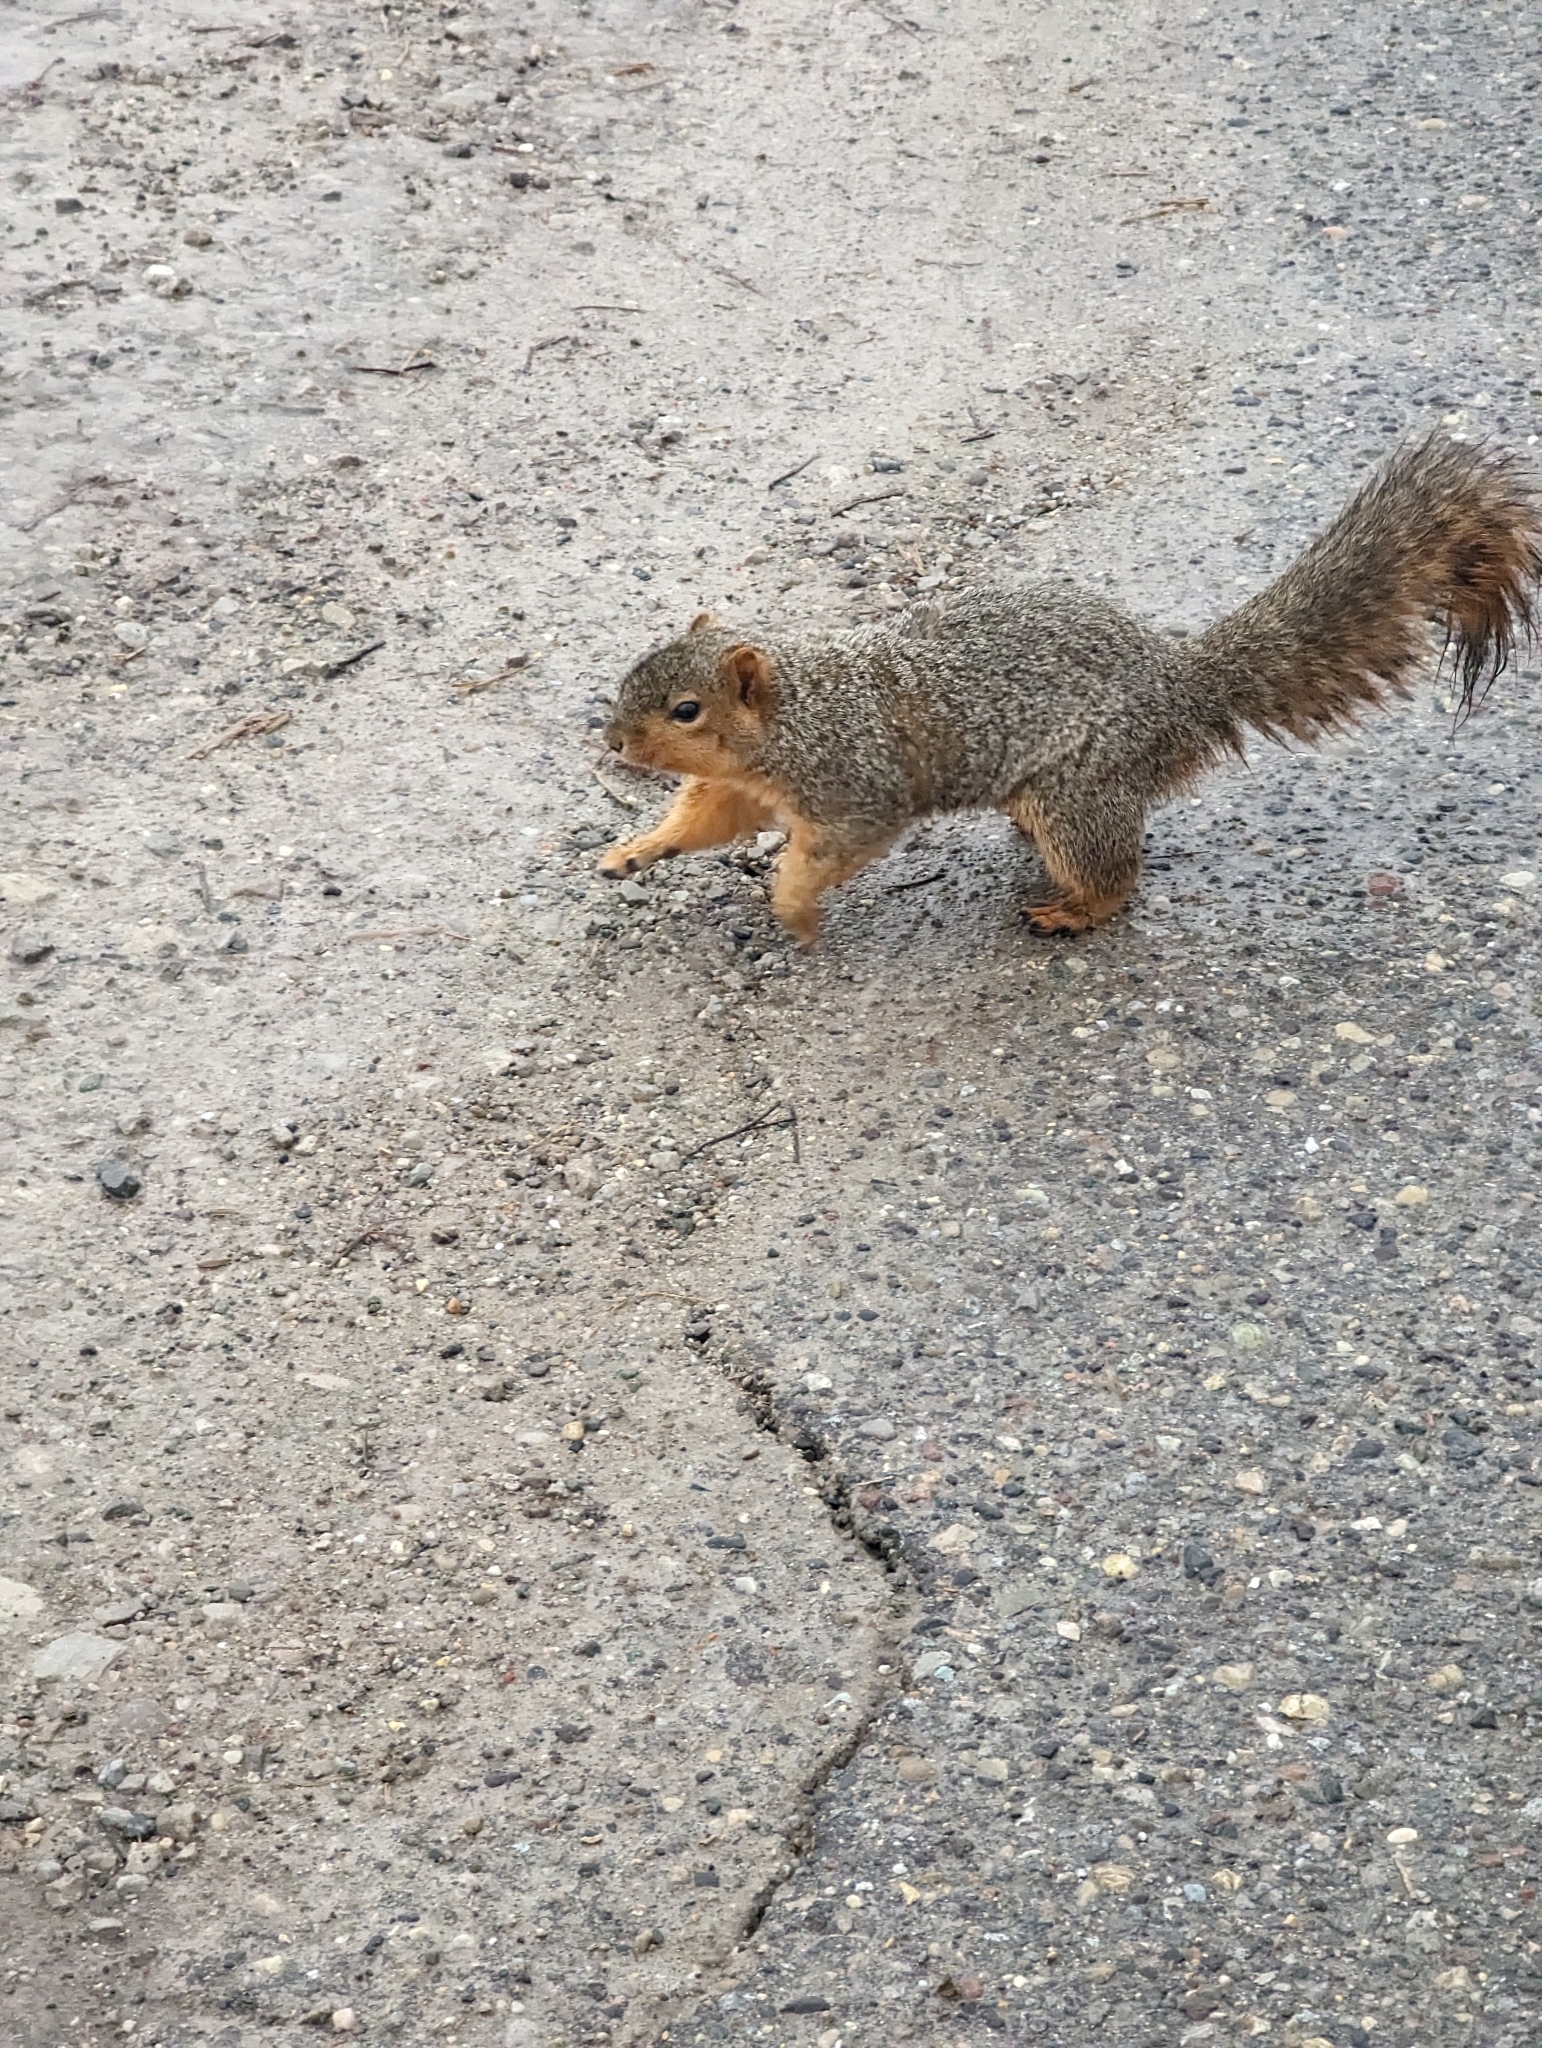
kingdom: Animalia
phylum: Chordata
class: Mammalia
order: Rodentia
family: Sciuridae
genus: Sciurus
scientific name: Sciurus niger
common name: Fox squirrel
